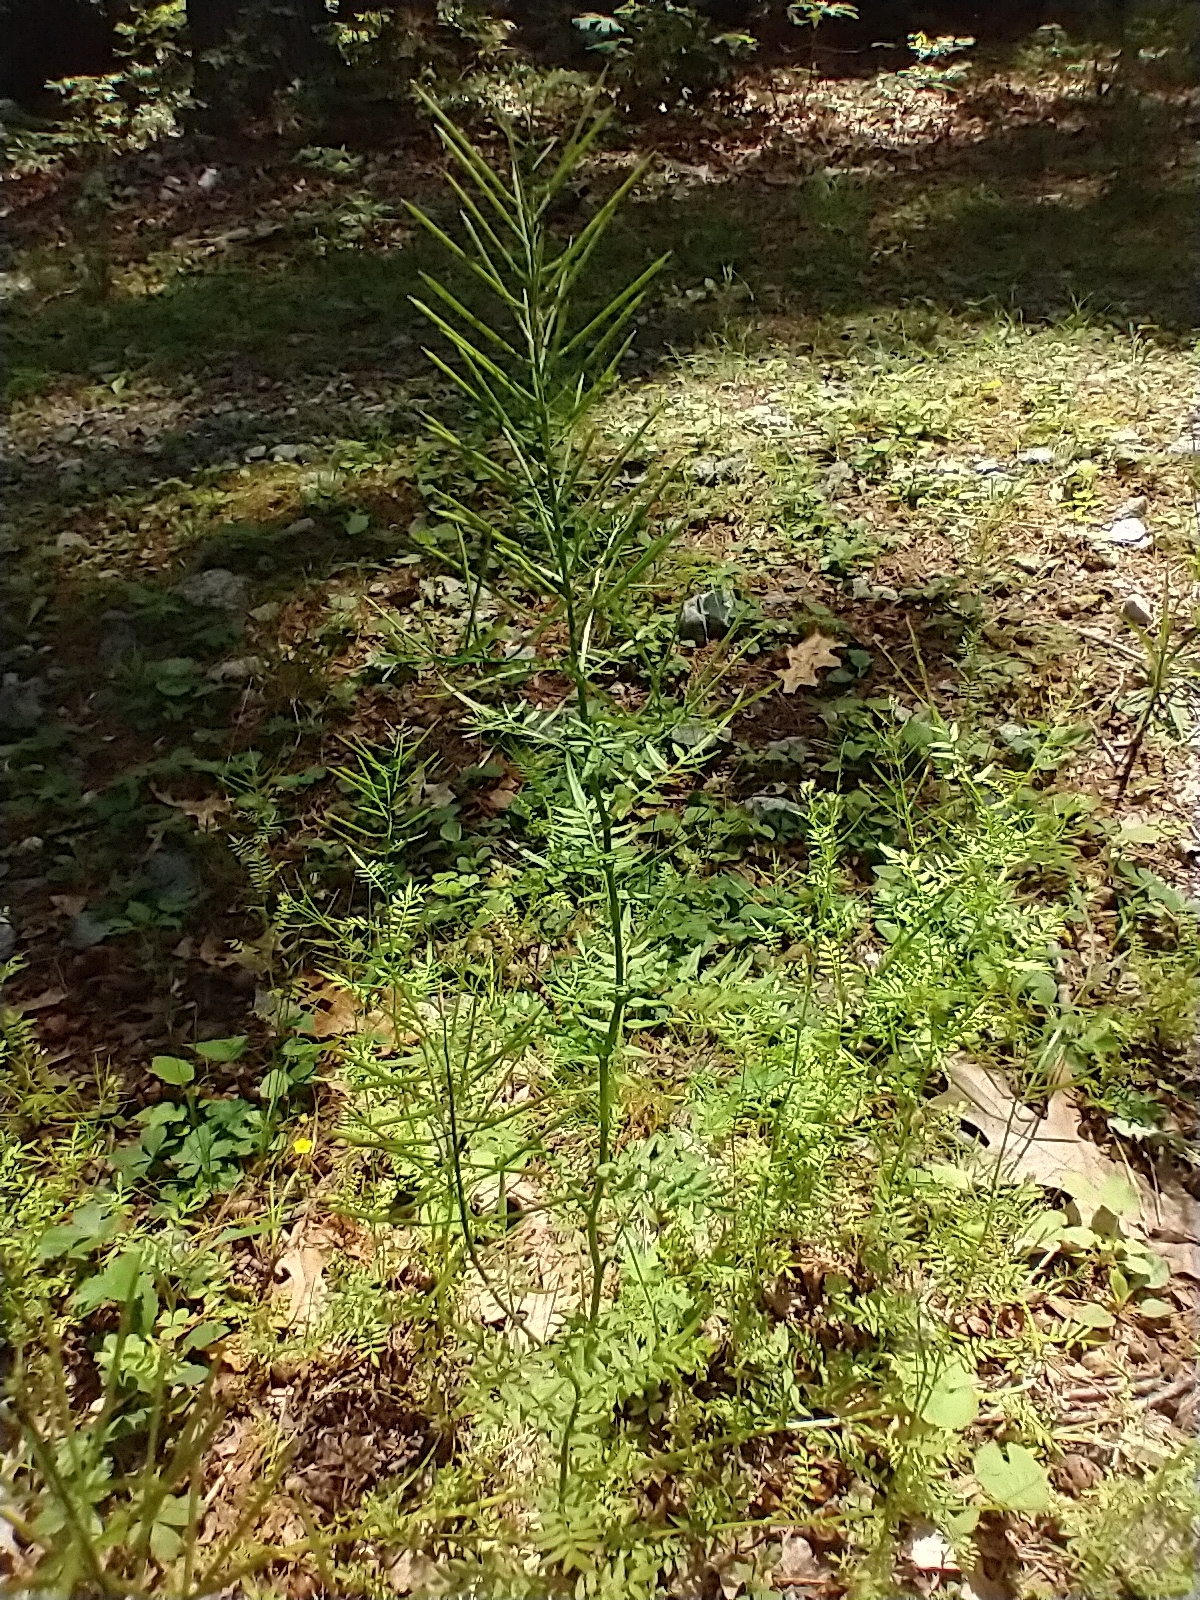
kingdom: Plantae
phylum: Tracheophyta
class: Magnoliopsida
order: Brassicales
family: Brassicaceae
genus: Cardamine
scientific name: Cardamine impatiens
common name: Narrow-leaved bitter-cress
